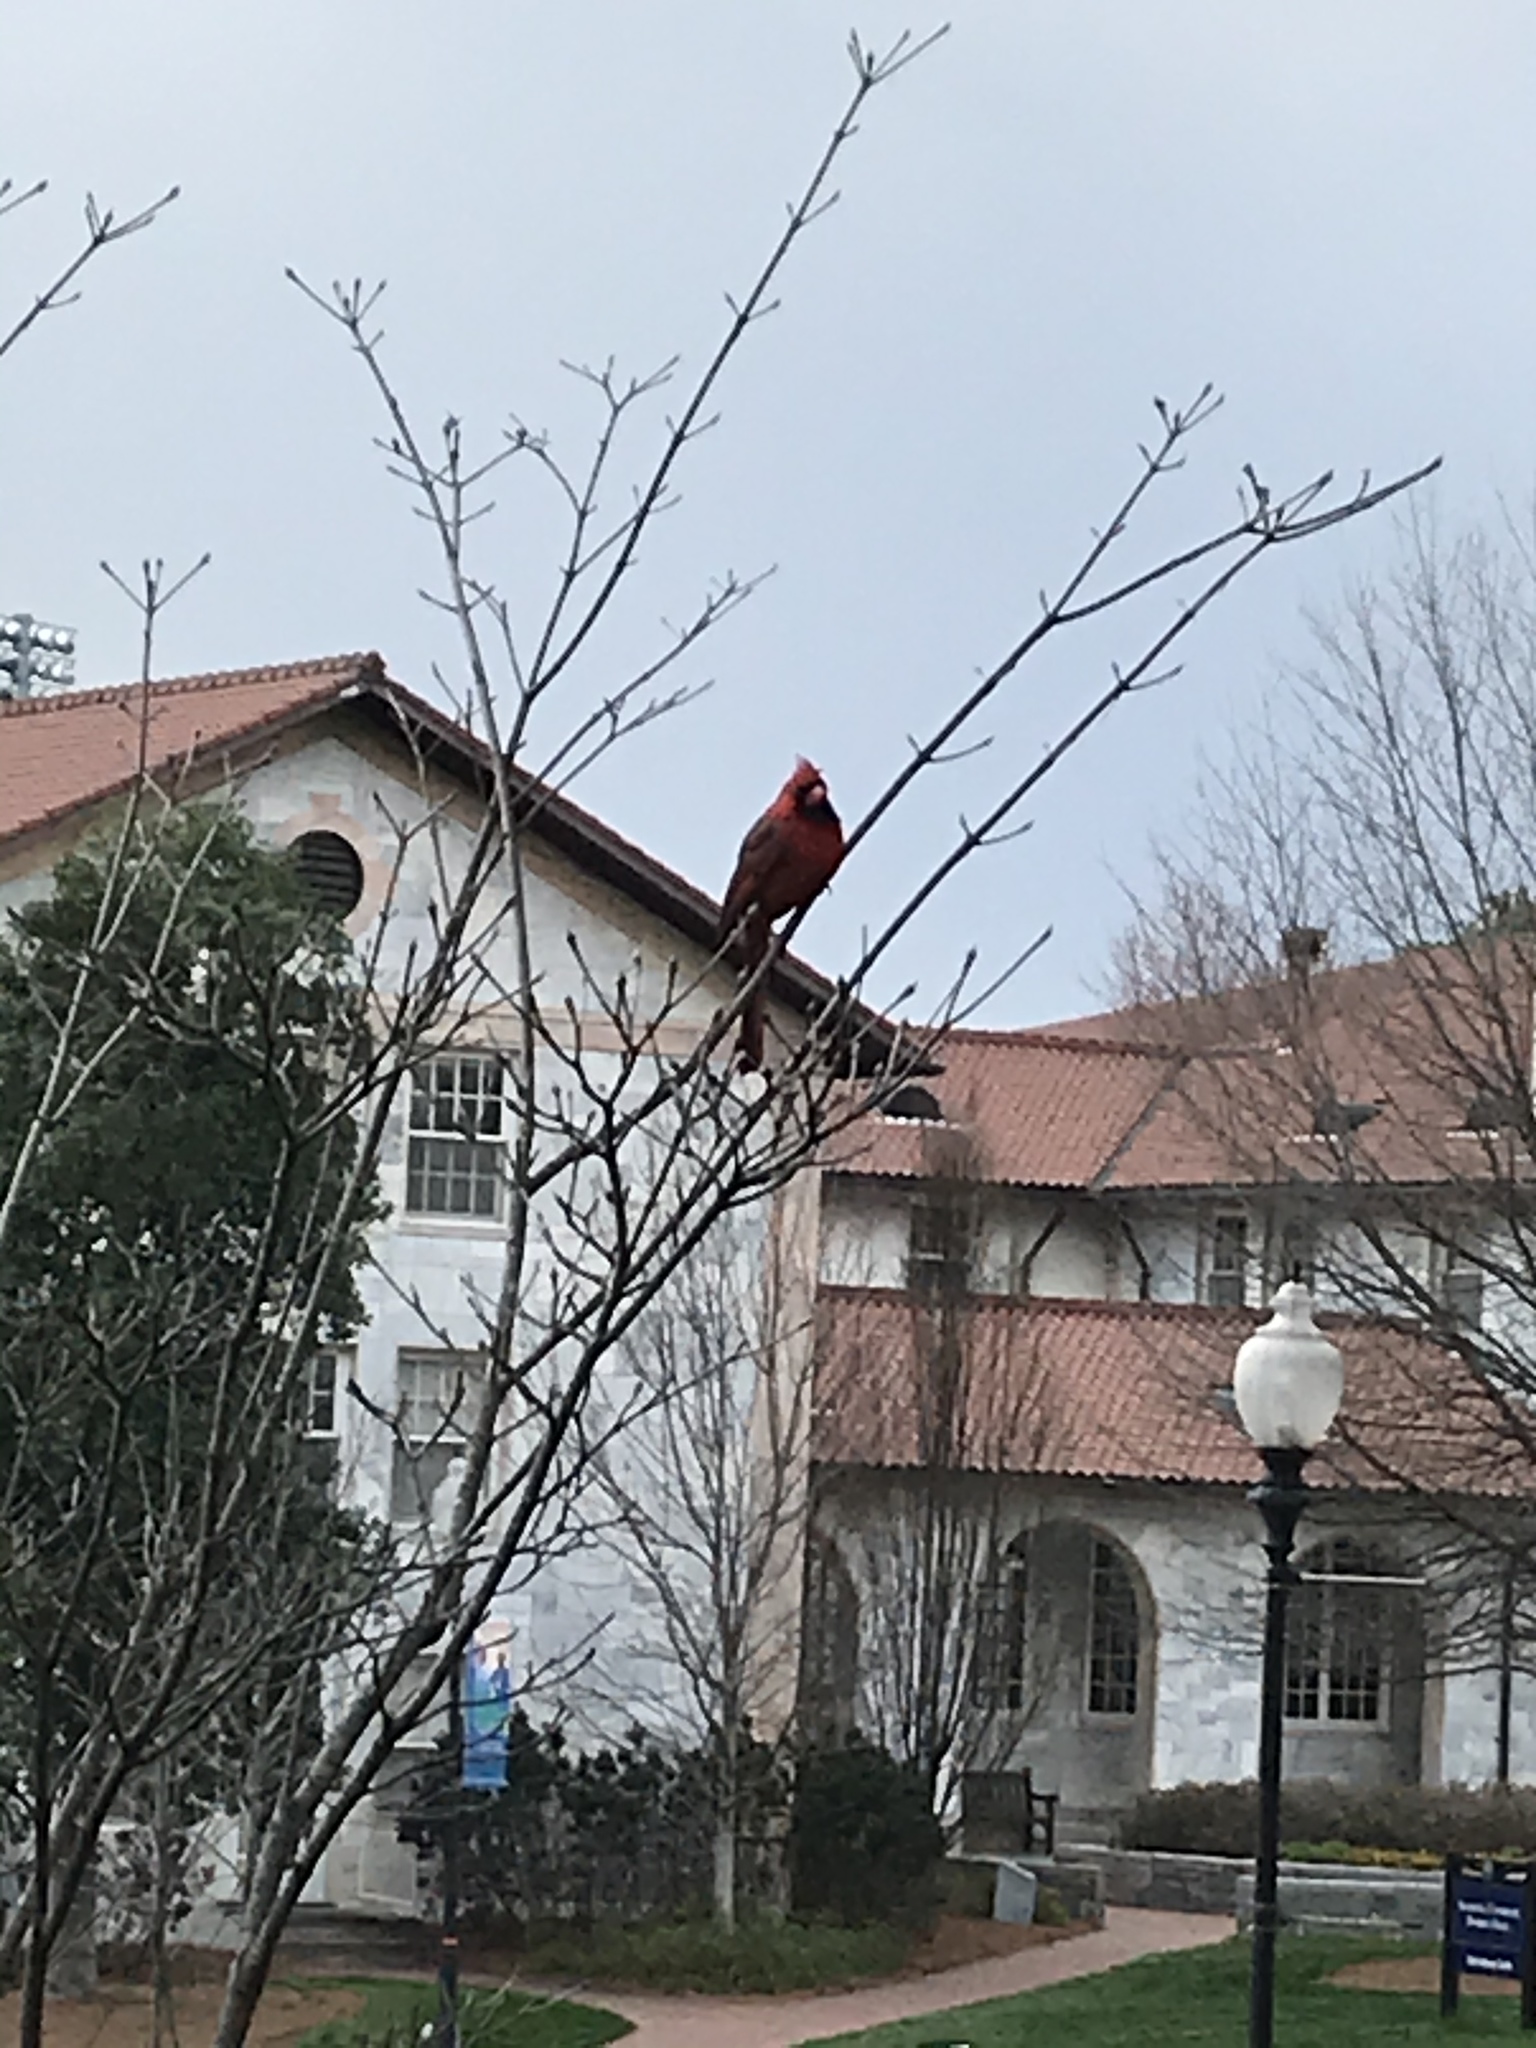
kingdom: Animalia
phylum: Chordata
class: Aves
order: Passeriformes
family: Cardinalidae
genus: Cardinalis
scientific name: Cardinalis cardinalis
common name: Northern cardinal
